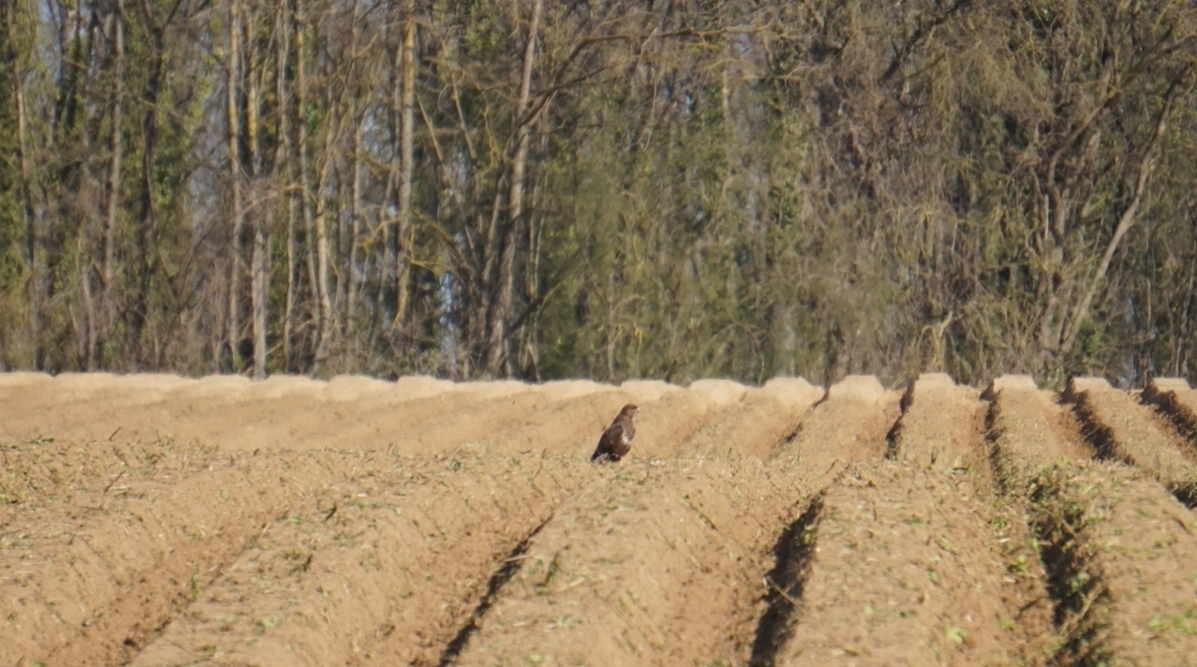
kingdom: Animalia
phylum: Chordata
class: Aves
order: Accipitriformes
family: Accipitridae
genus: Buteo
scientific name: Buteo buteo
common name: Common buzzard
